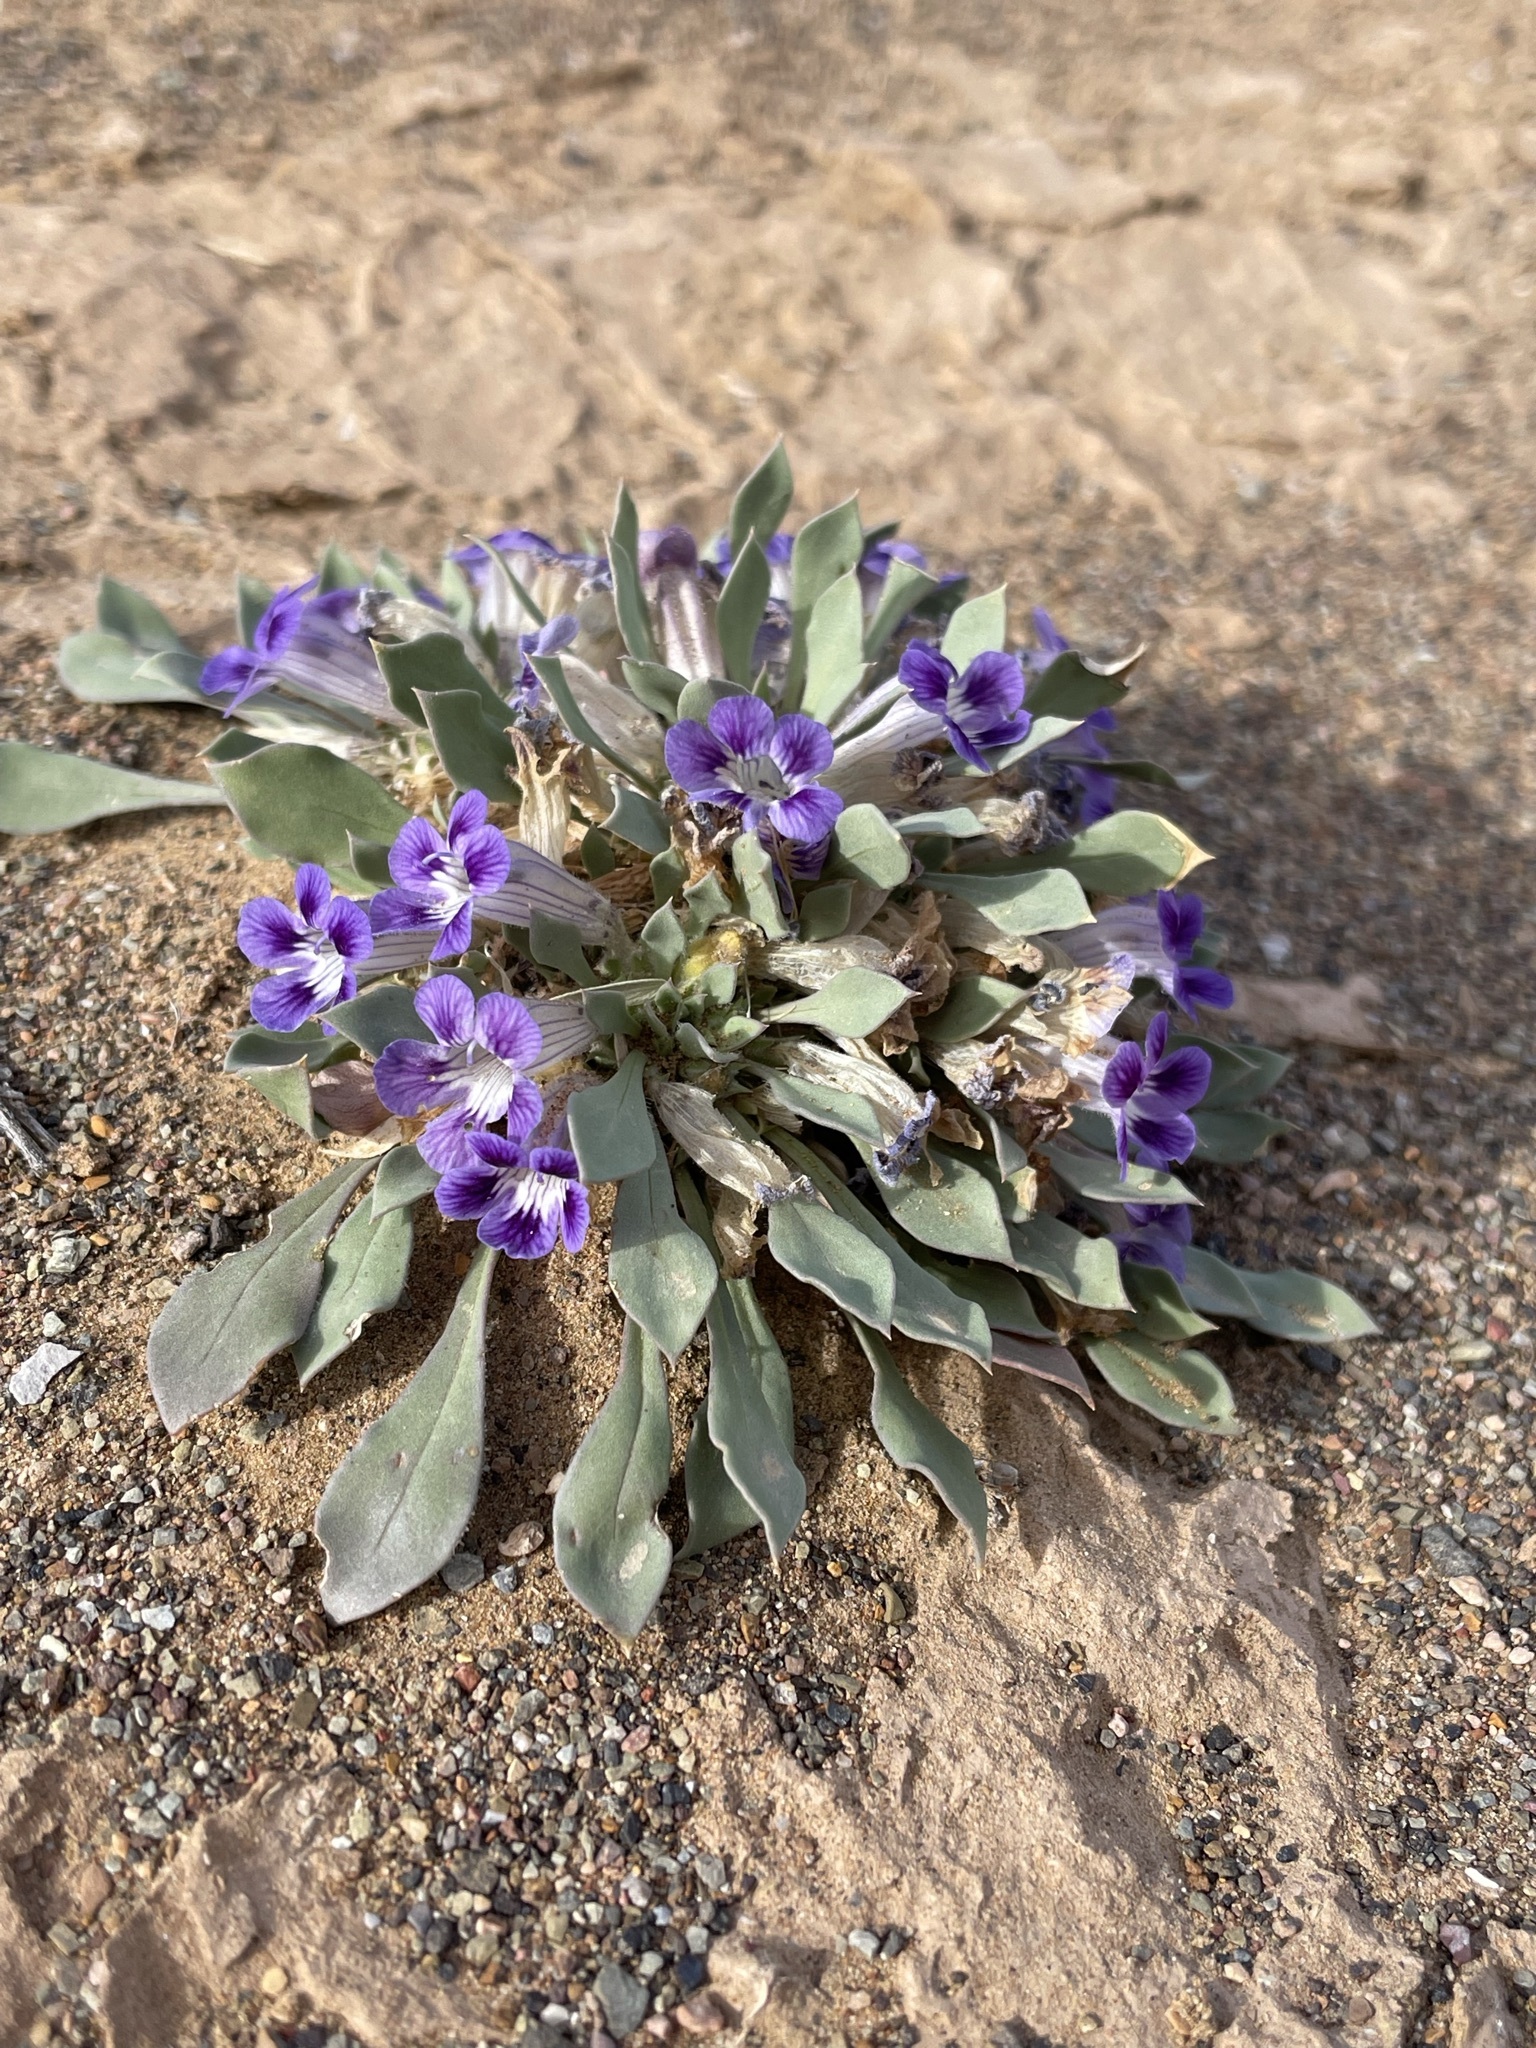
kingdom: Plantae
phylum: Tracheophyta
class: Magnoliopsida
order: Lamiales
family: Scrophulariaceae
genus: Aptosimum
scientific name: Aptosimum indivisum
